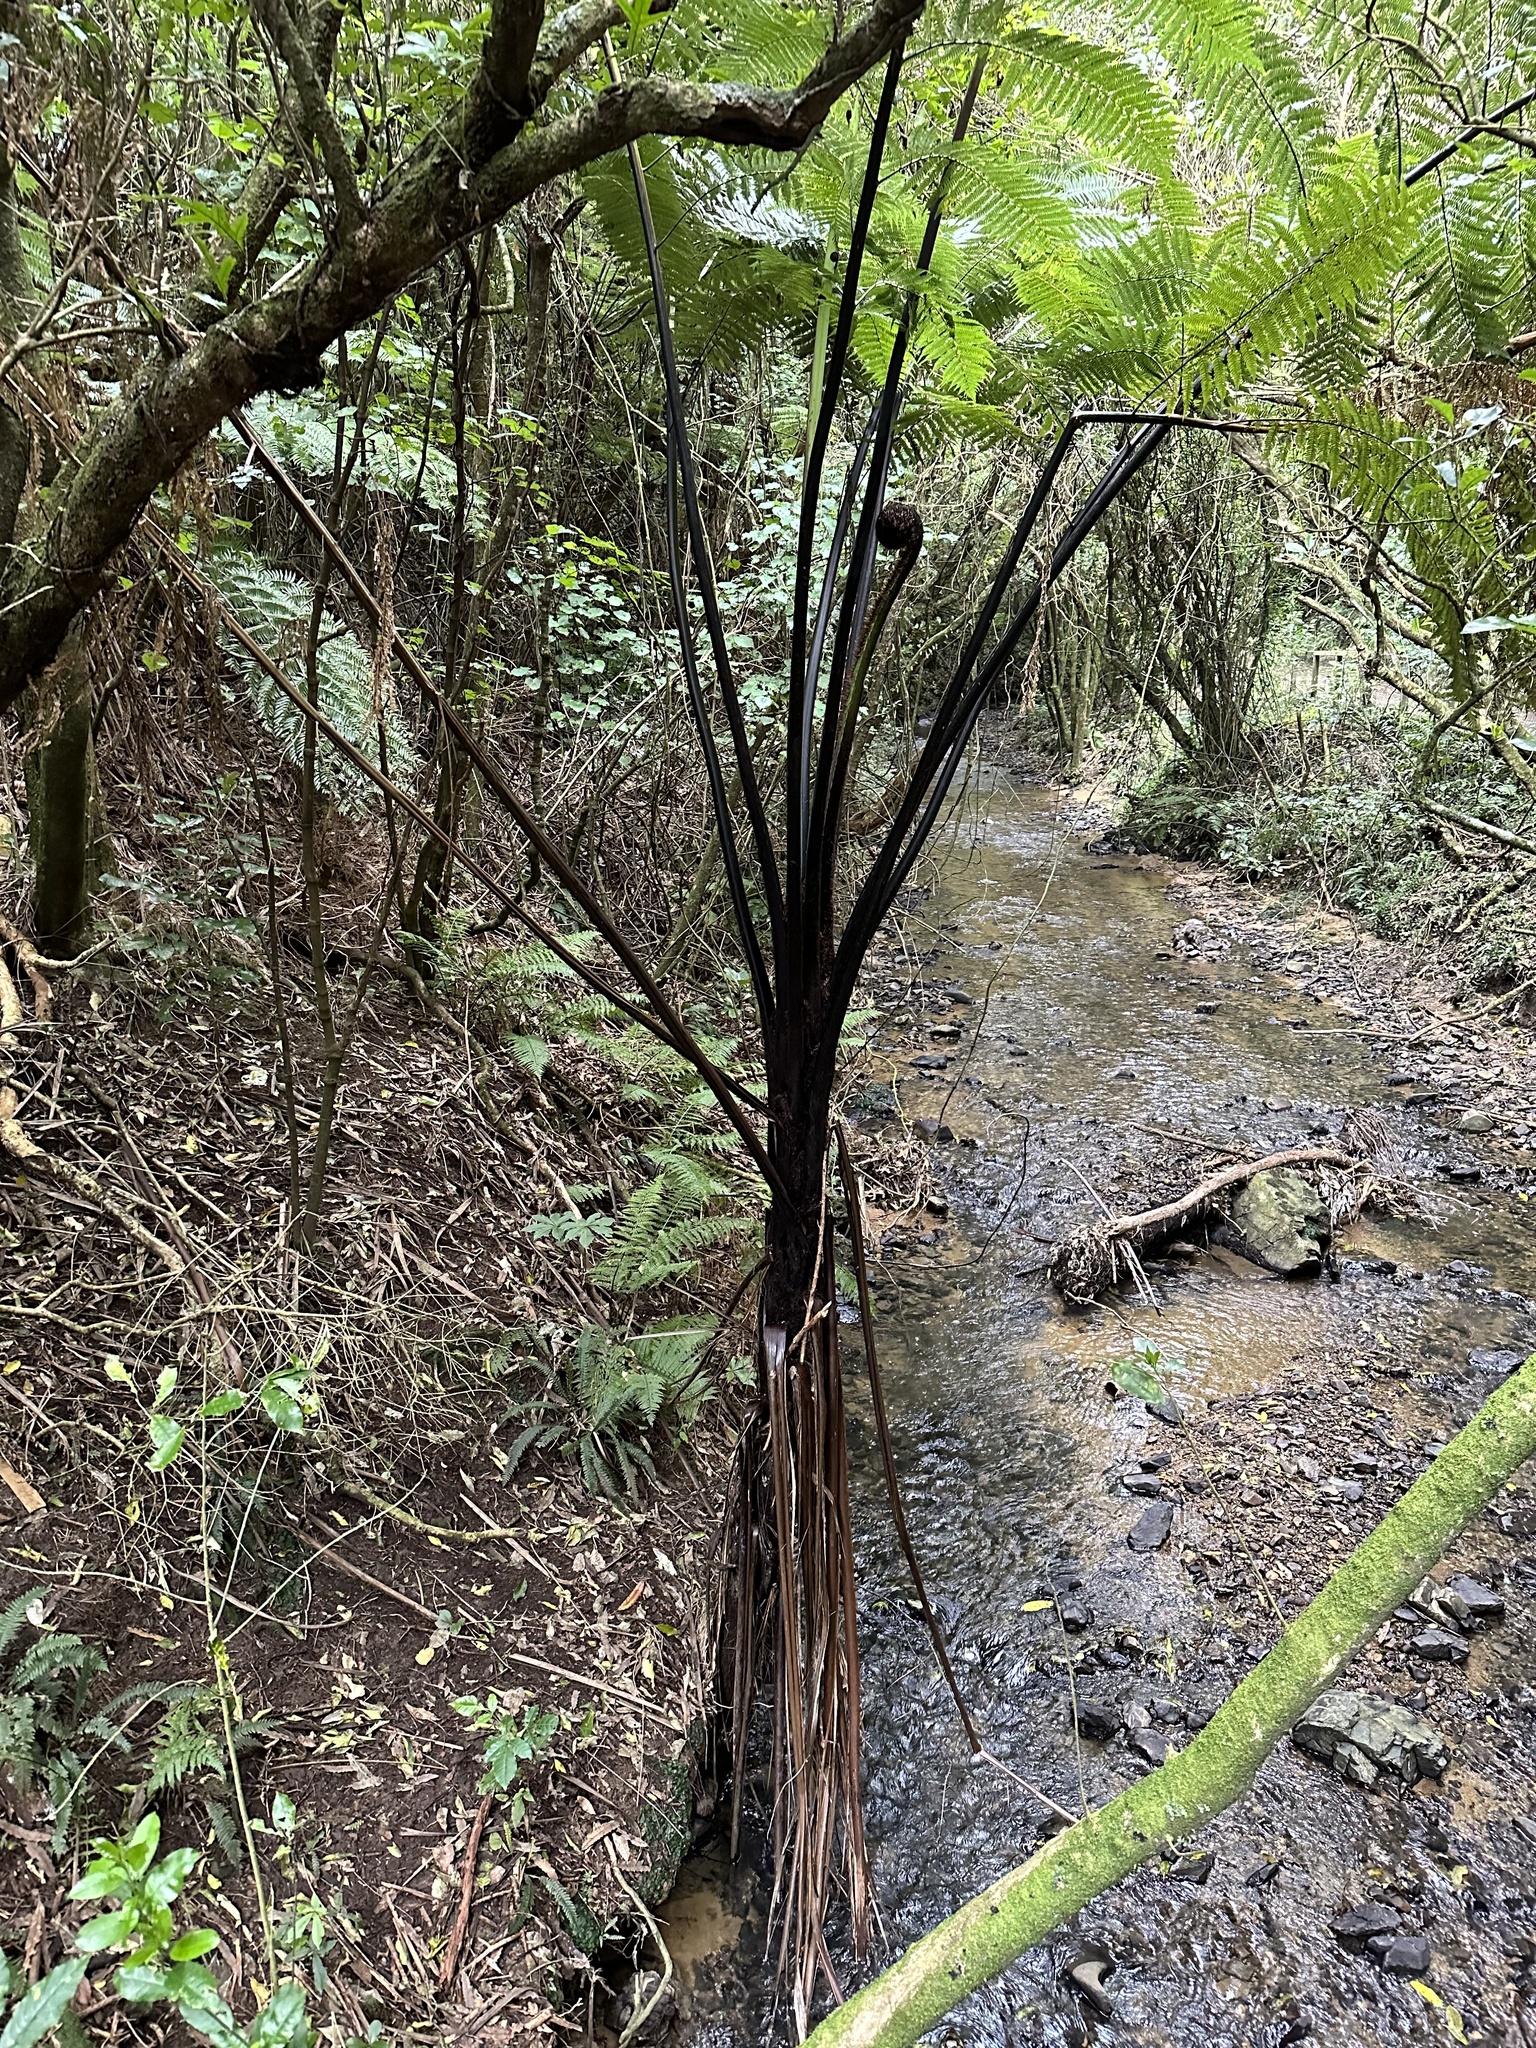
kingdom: Plantae
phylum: Tracheophyta
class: Polypodiopsida
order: Cyatheales
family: Cyatheaceae
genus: Sphaeropteris
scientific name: Sphaeropteris medullaris
